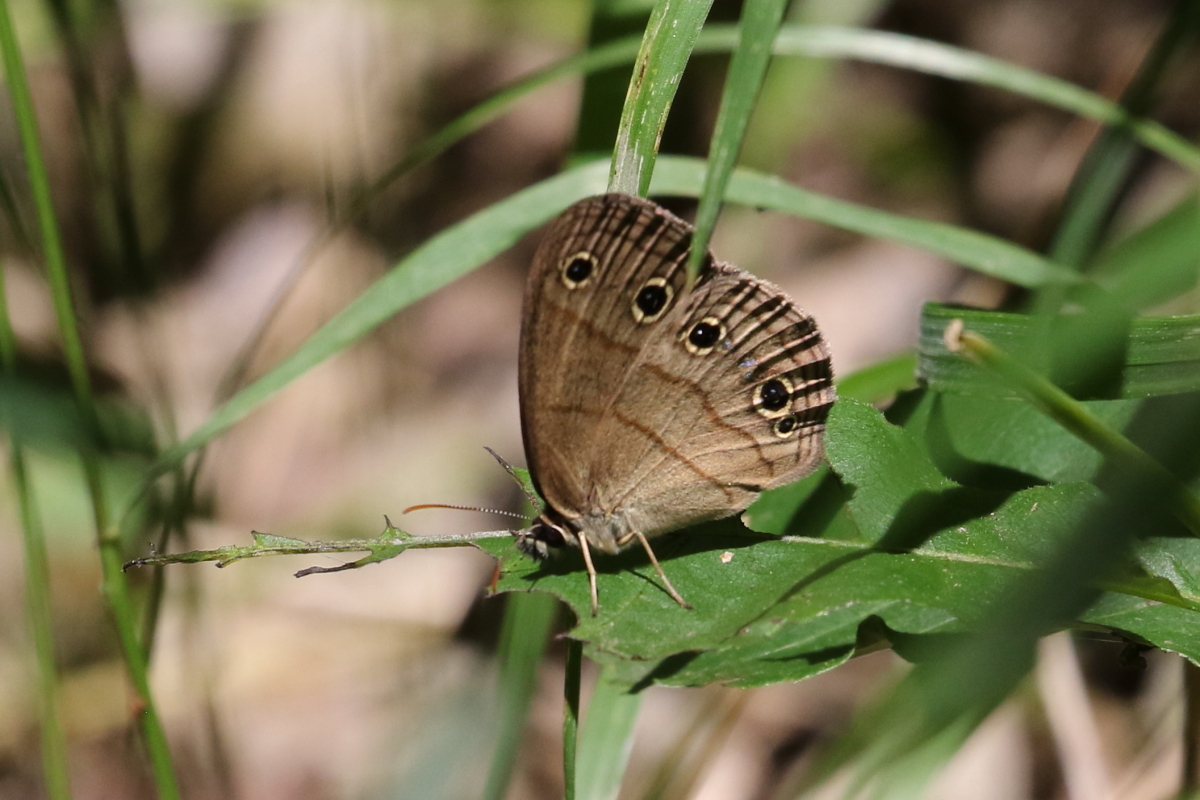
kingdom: Animalia
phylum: Arthropoda
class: Insecta
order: Lepidoptera
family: Nymphalidae
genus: Euptychia
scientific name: Euptychia cymela
